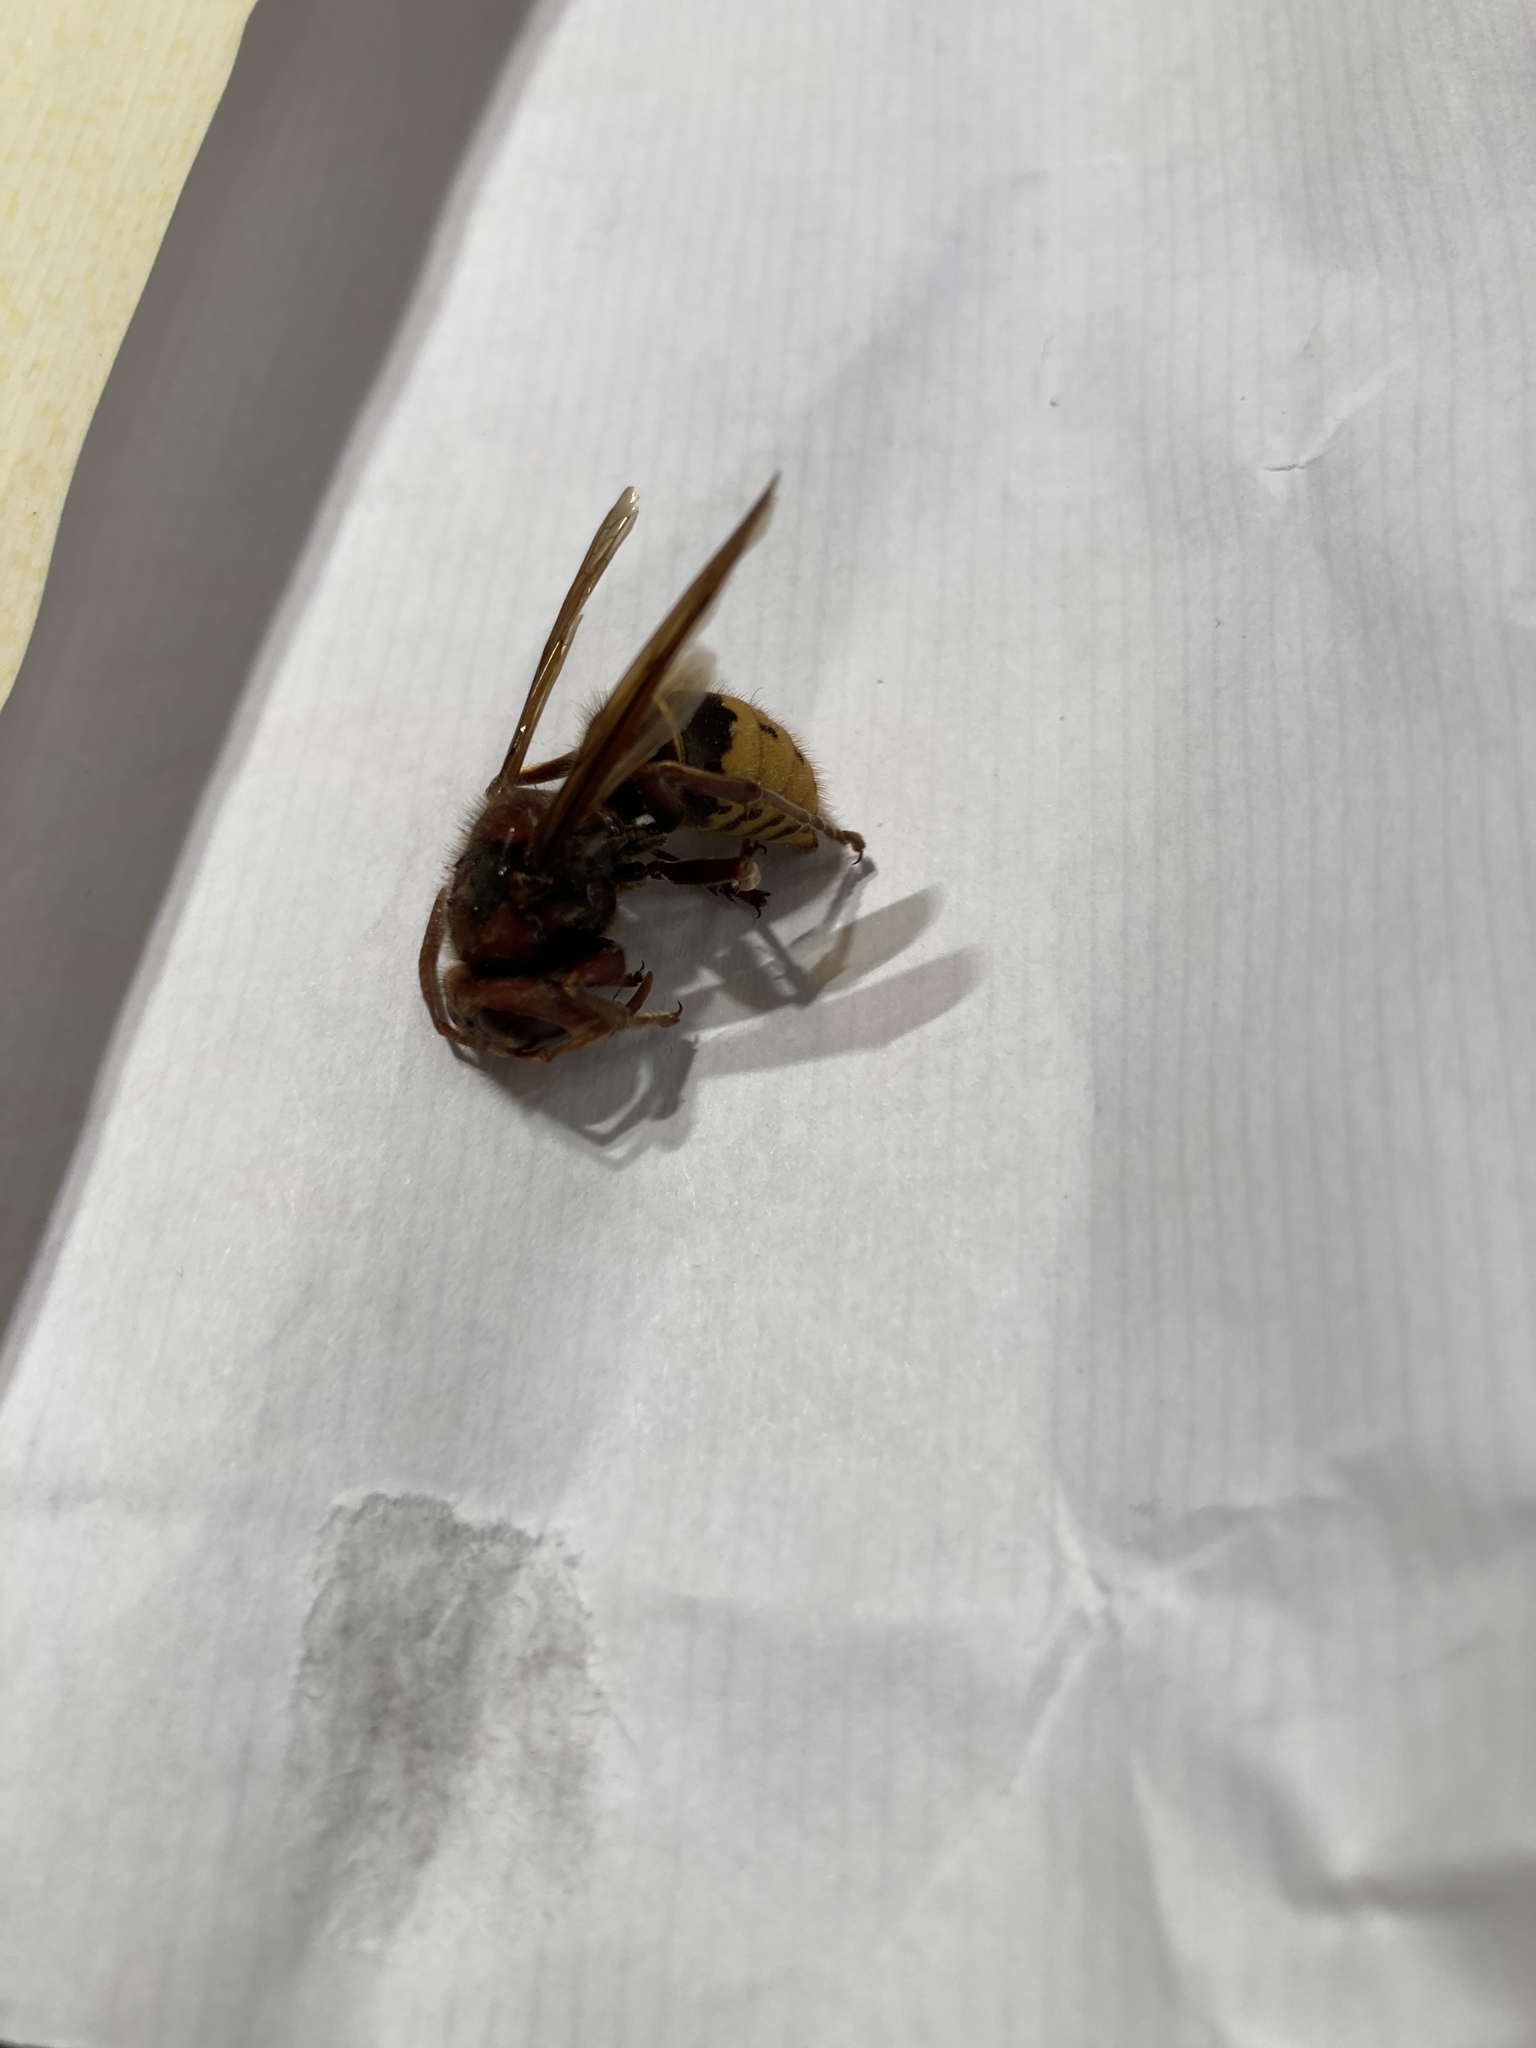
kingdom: Animalia
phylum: Arthropoda
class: Insecta
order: Hymenoptera
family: Vespidae
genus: Vespa
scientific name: Vespa crabro
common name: Hornet
